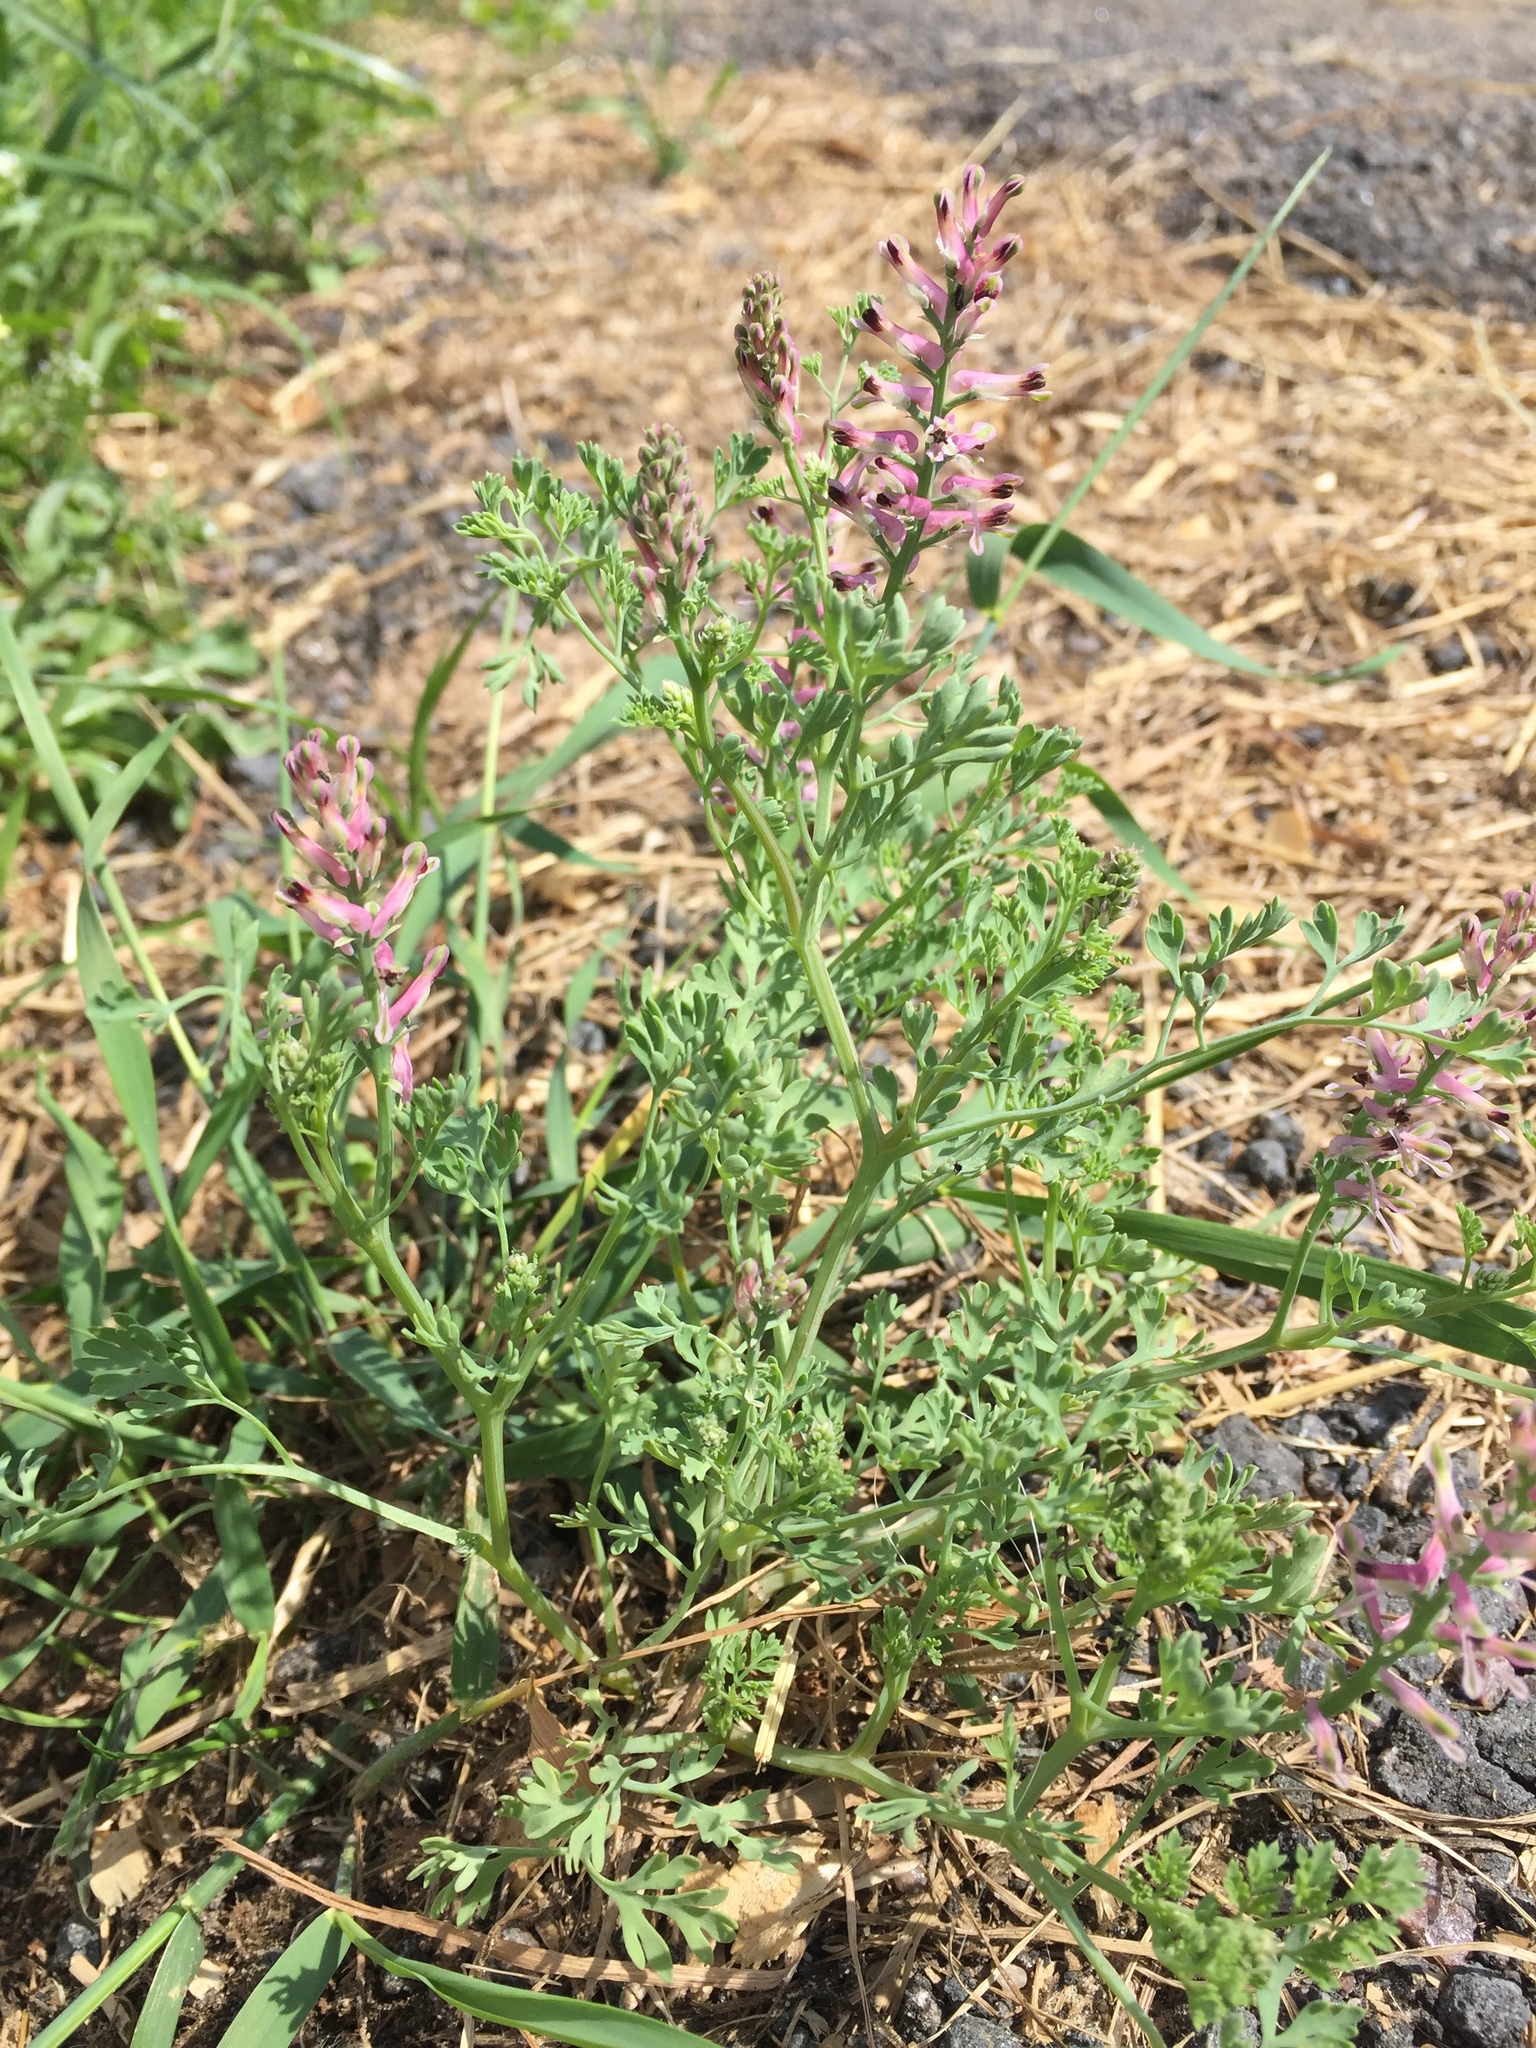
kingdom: Plantae
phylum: Tracheophyta
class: Magnoliopsida
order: Ranunculales
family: Papaveraceae
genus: Fumaria
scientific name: Fumaria officinalis
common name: Common fumitory
